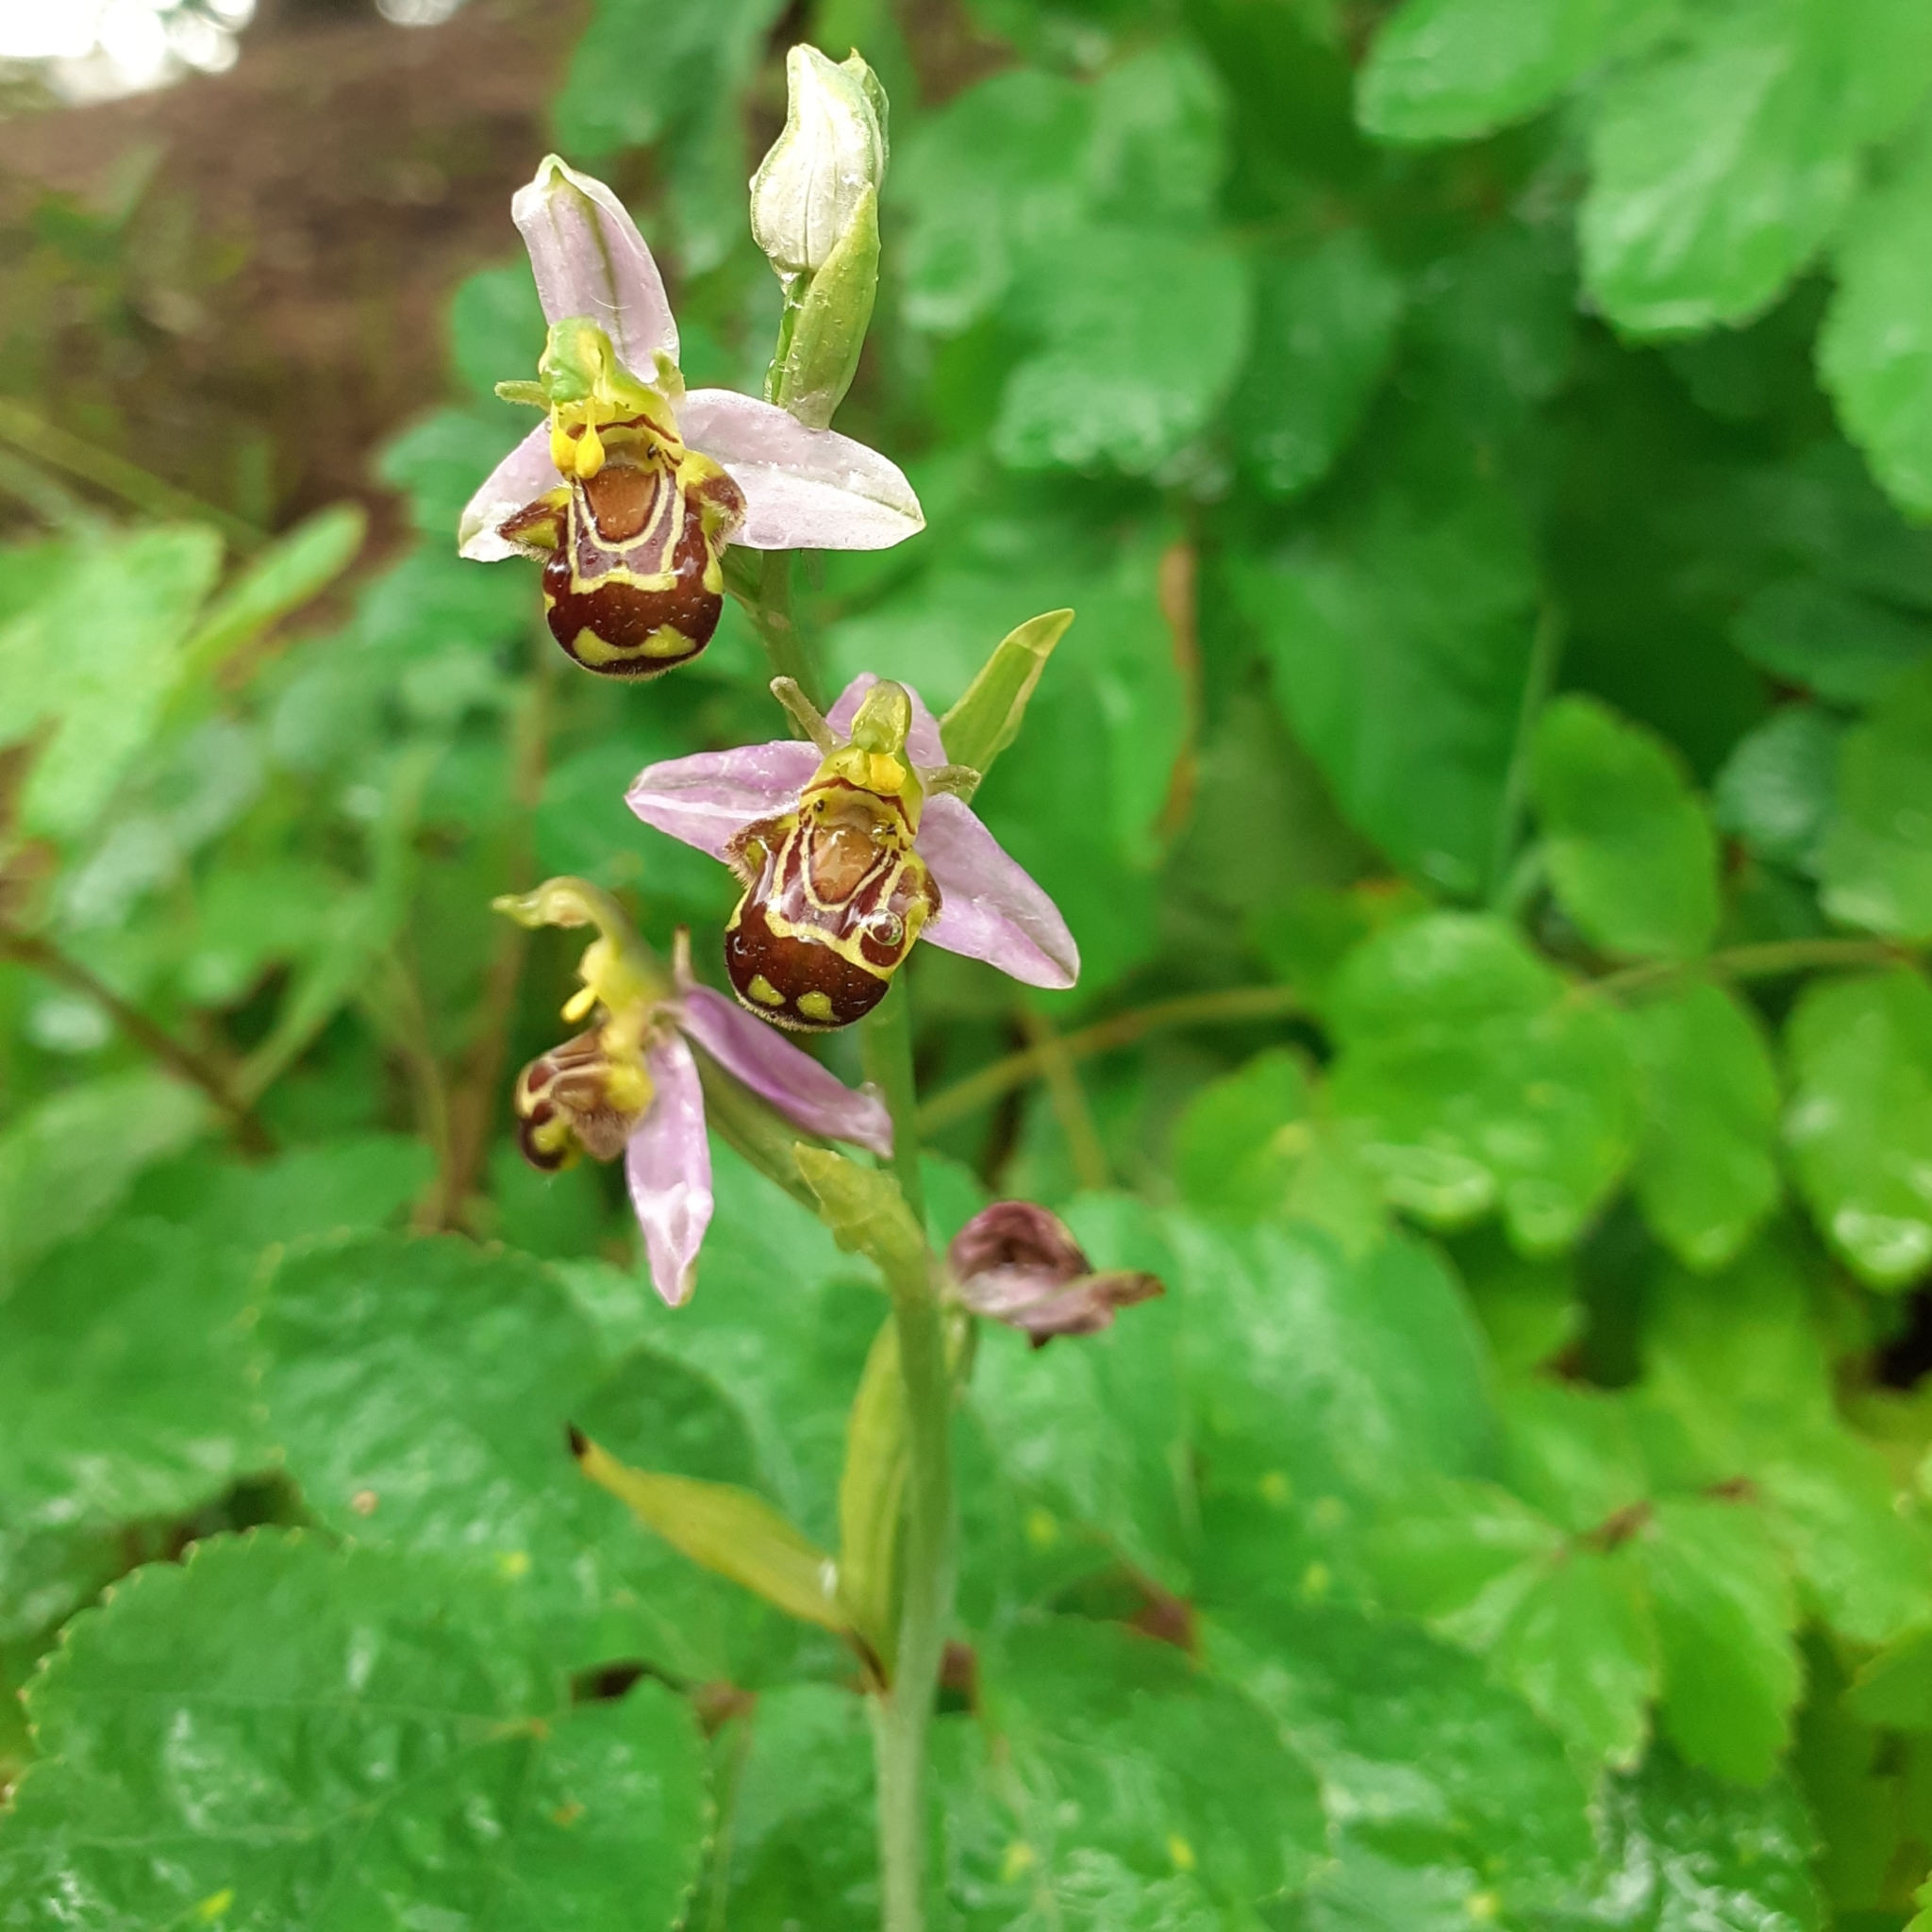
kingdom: Plantae
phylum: Tracheophyta
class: Liliopsida
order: Asparagales
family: Orchidaceae
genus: Ophrys
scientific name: Ophrys apifera
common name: Bee orchid
